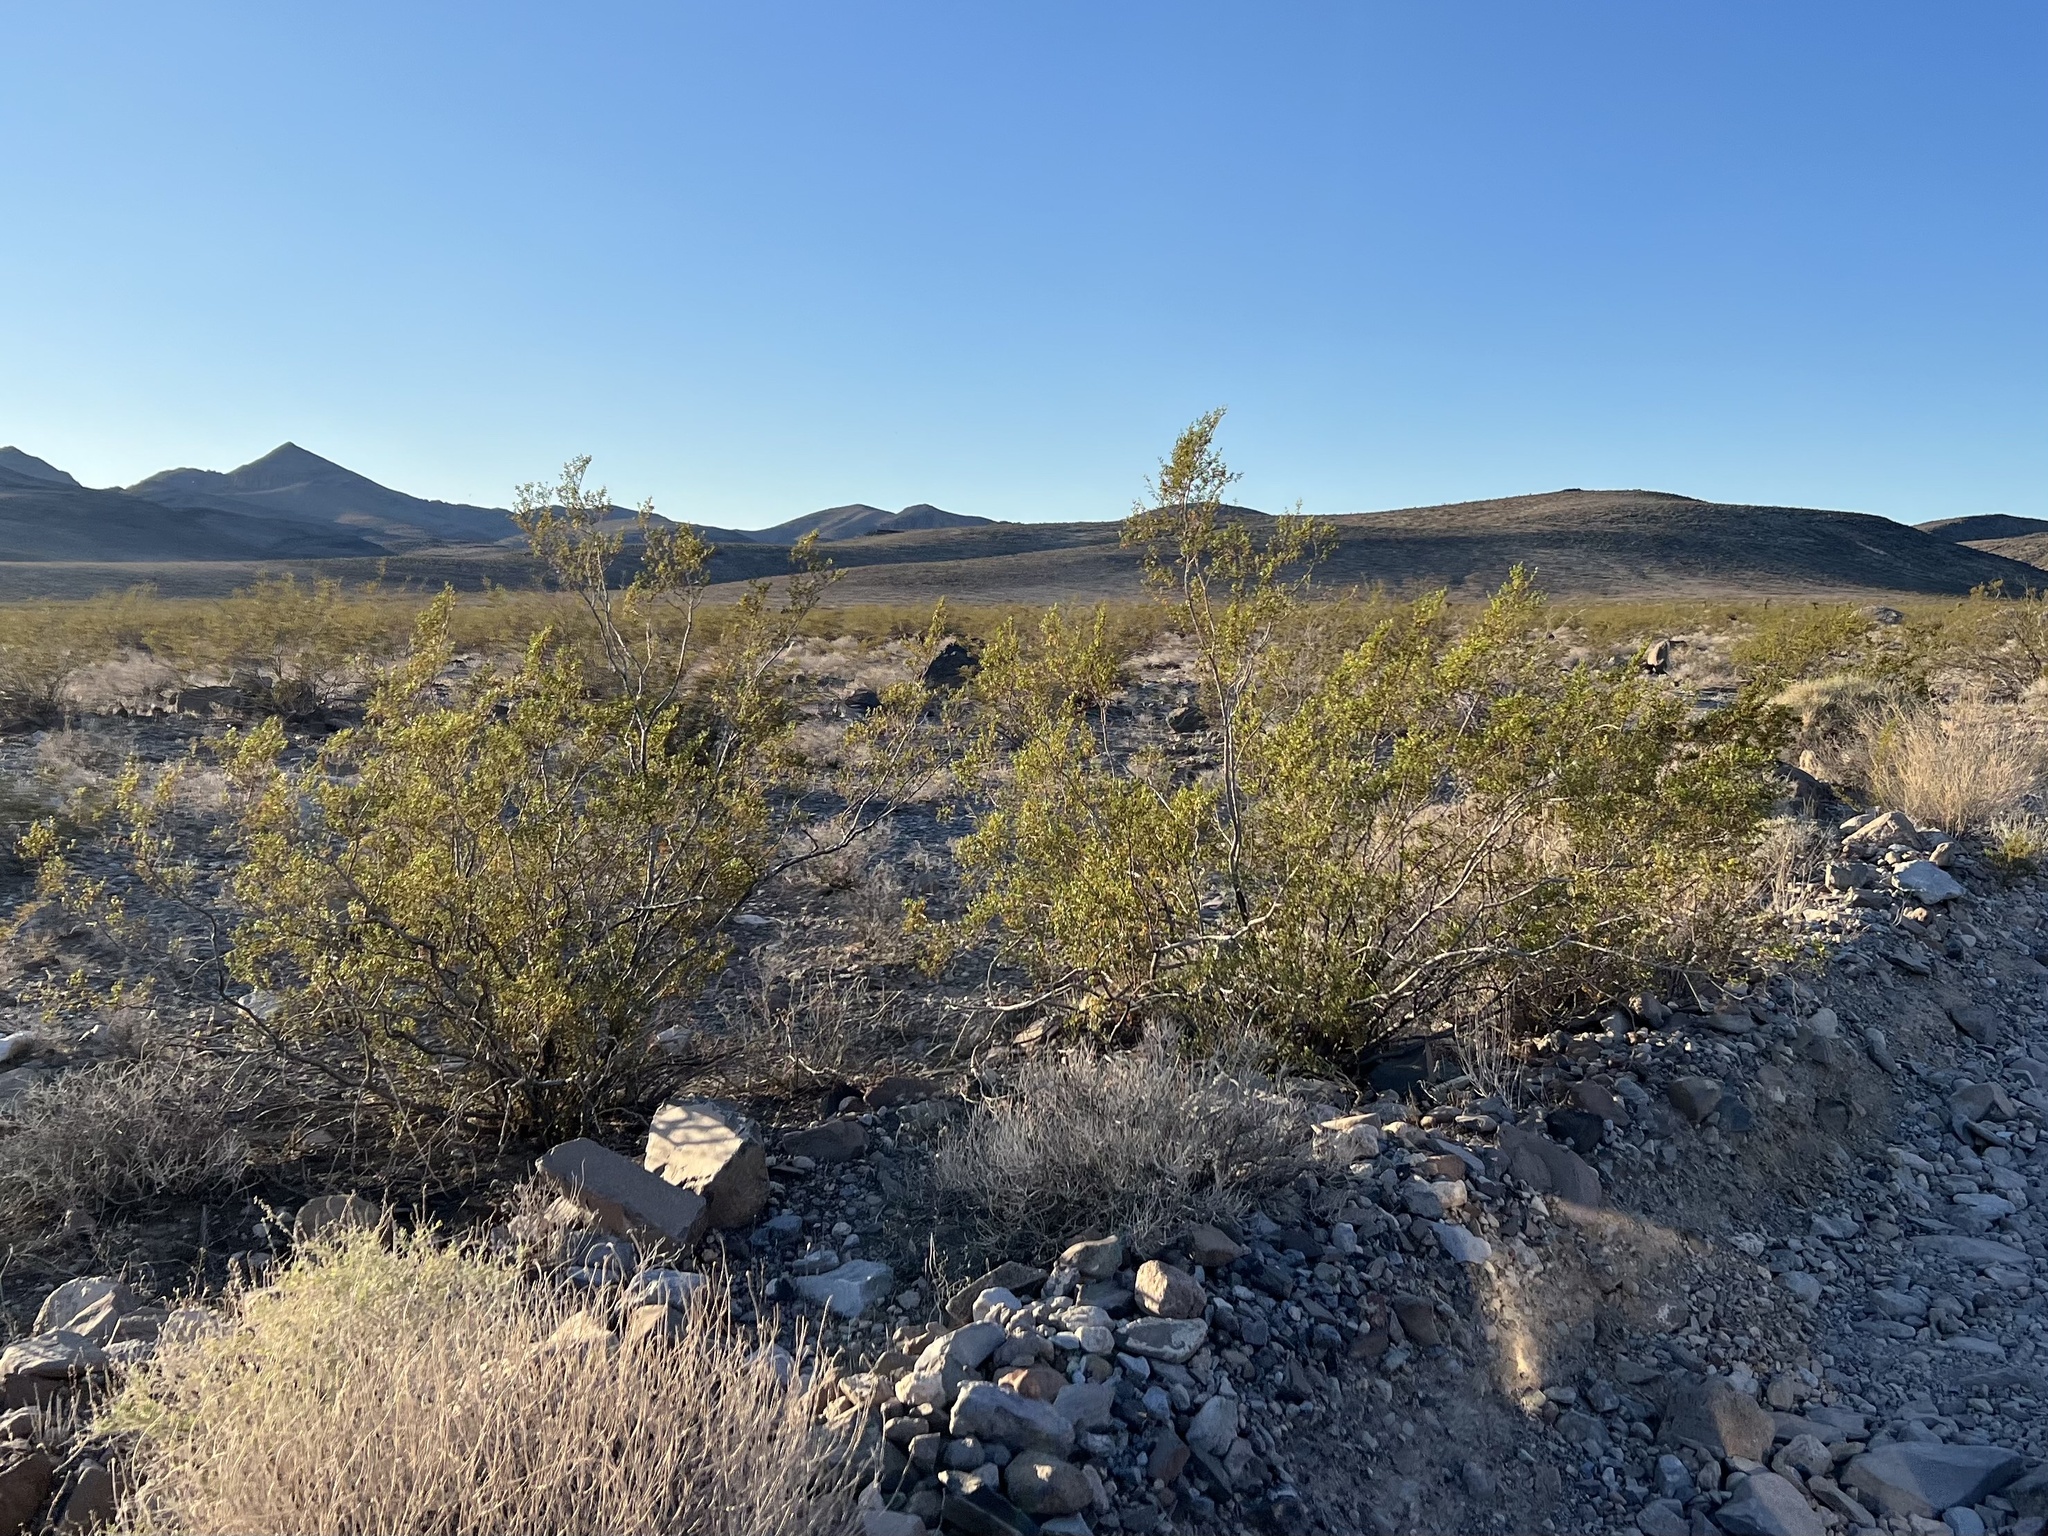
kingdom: Plantae
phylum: Tracheophyta
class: Magnoliopsida
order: Zygophyllales
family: Zygophyllaceae
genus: Larrea
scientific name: Larrea tridentata
